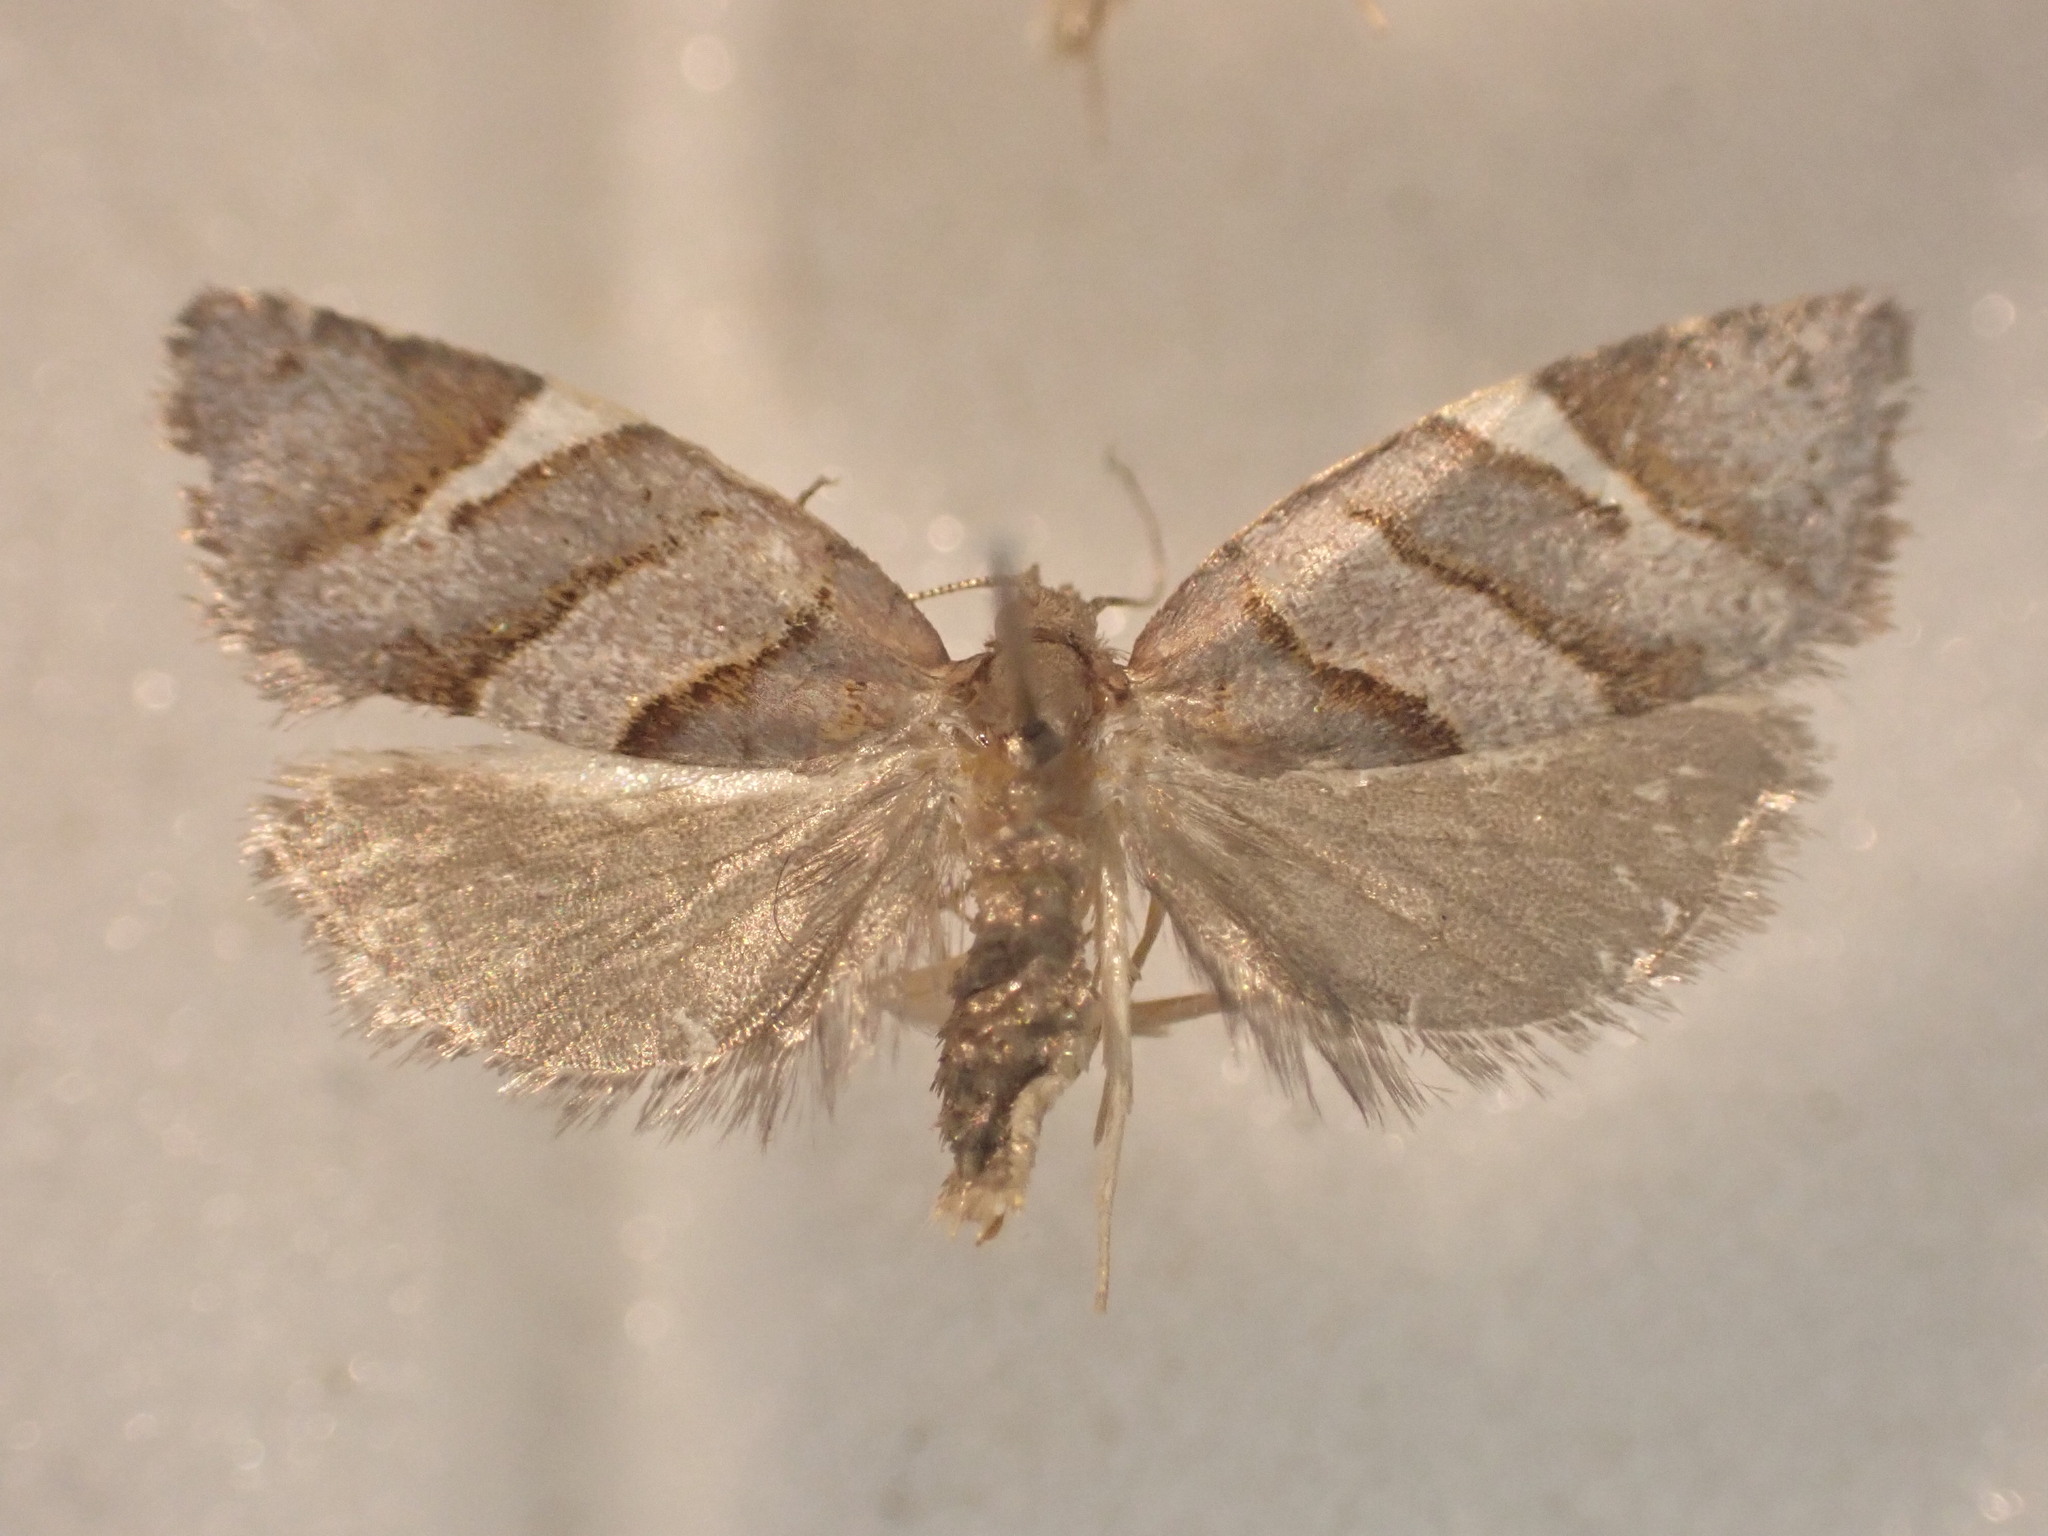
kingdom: Animalia
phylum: Arthropoda
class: Insecta
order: Lepidoptera
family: Tortricidae
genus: Ecclitica
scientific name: Ecclitica torogramma
